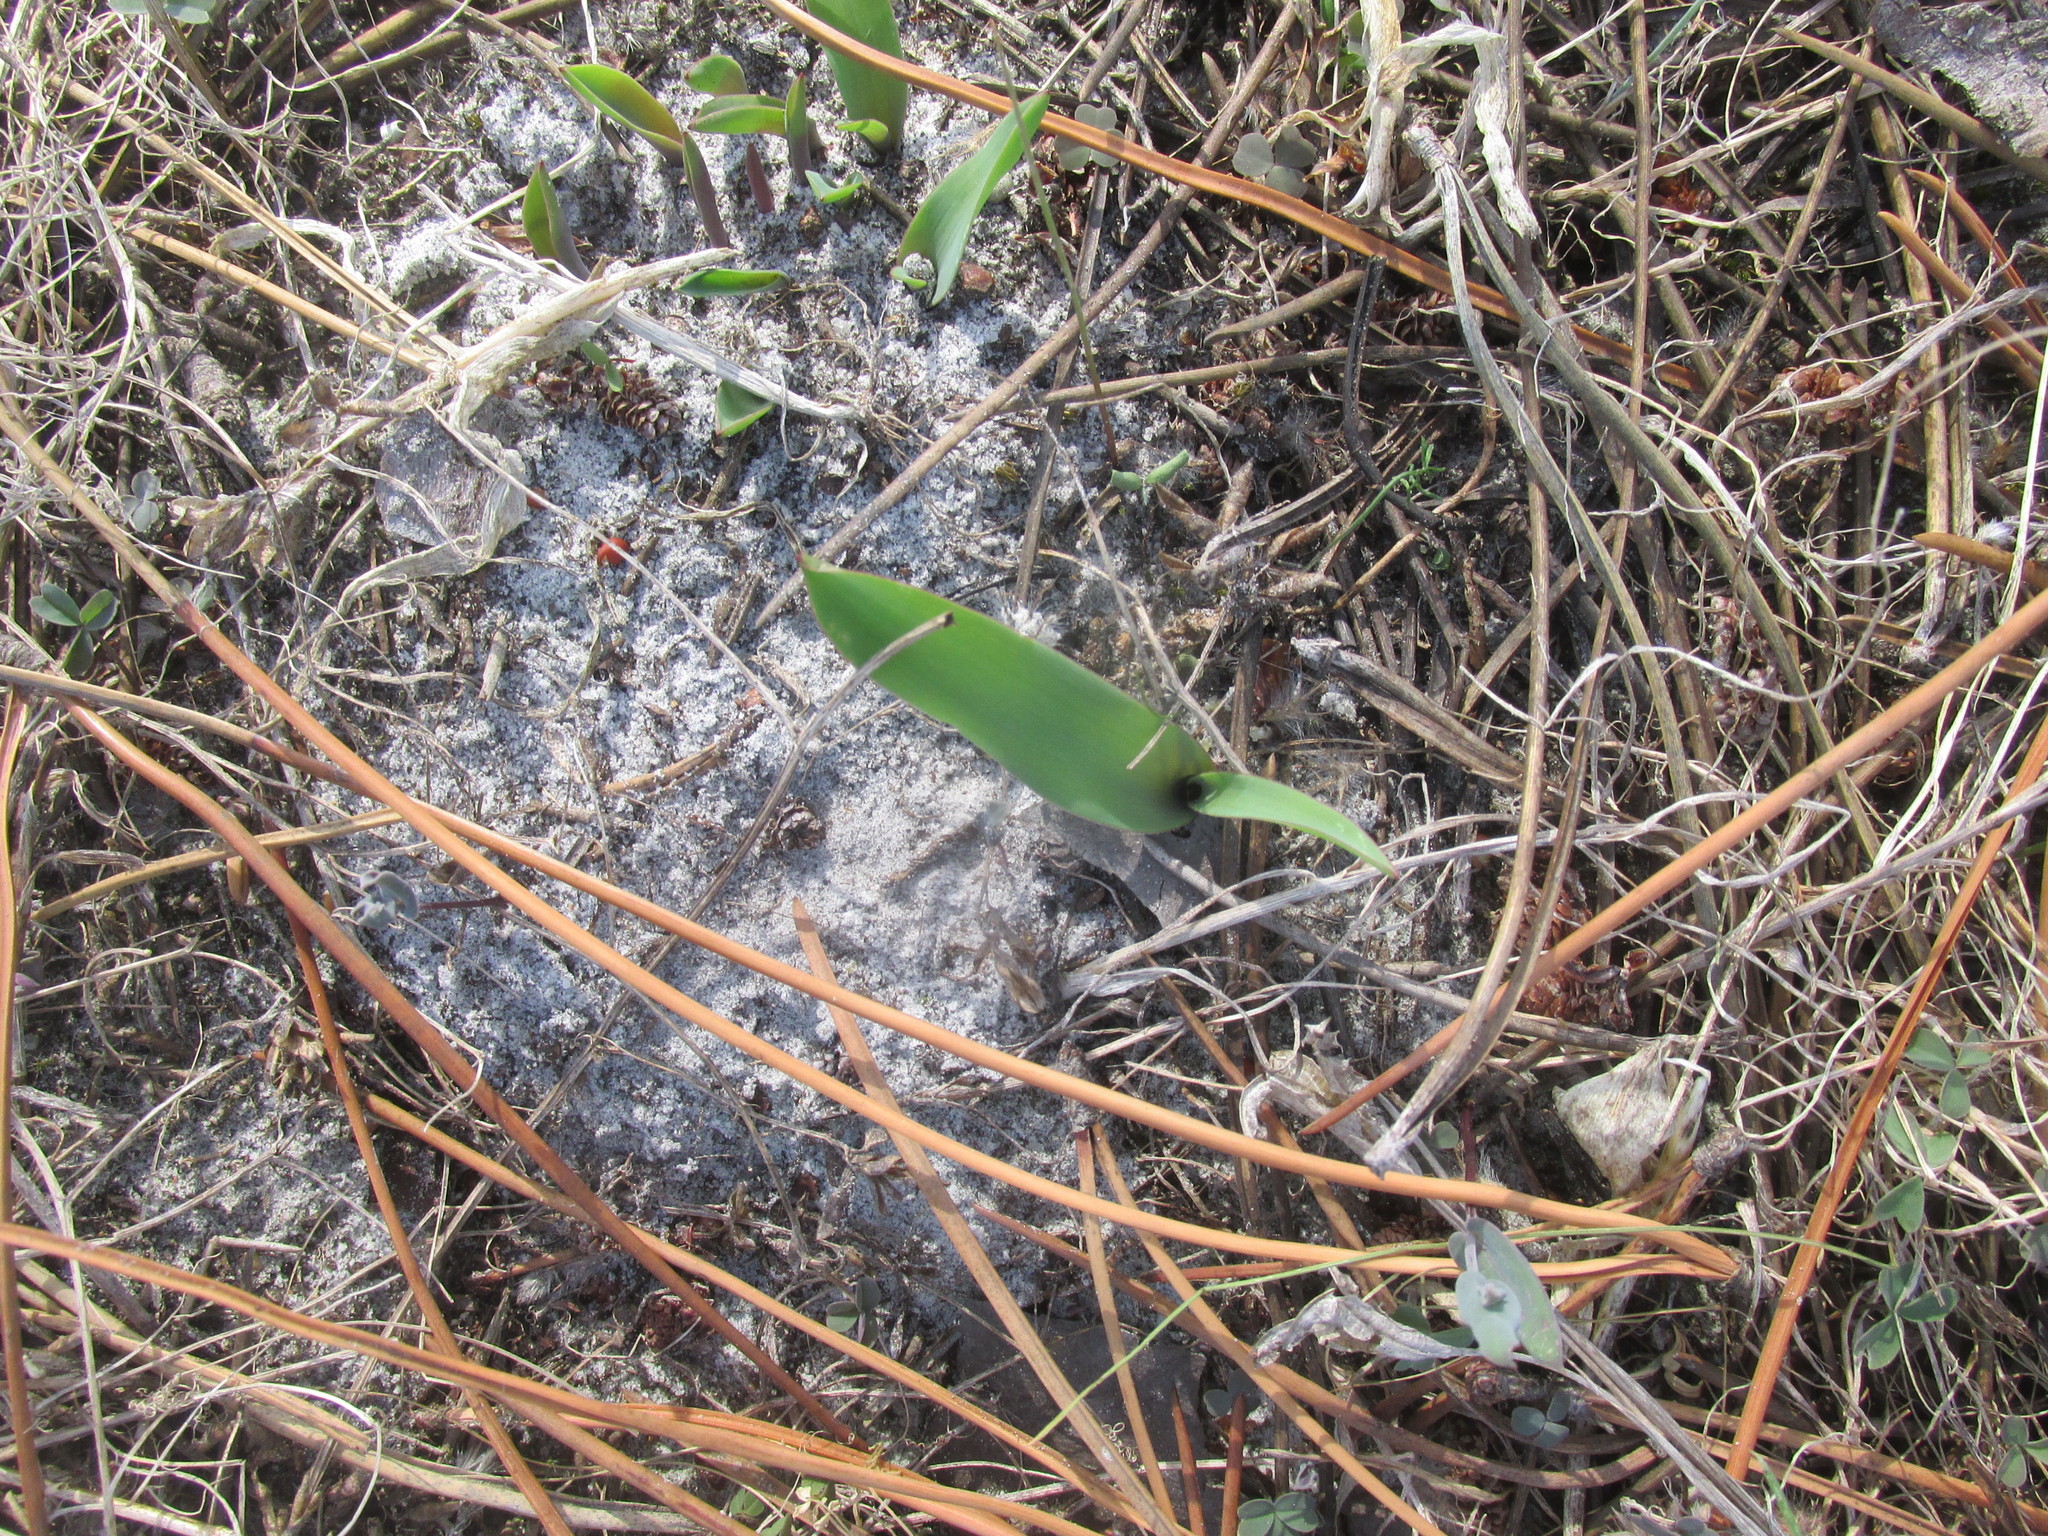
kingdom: Plantae
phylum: Tracheophyta
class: Liliopsida
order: Asparagales
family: Asparagaceae
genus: Lachenalia
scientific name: Lachenalia reflexa
